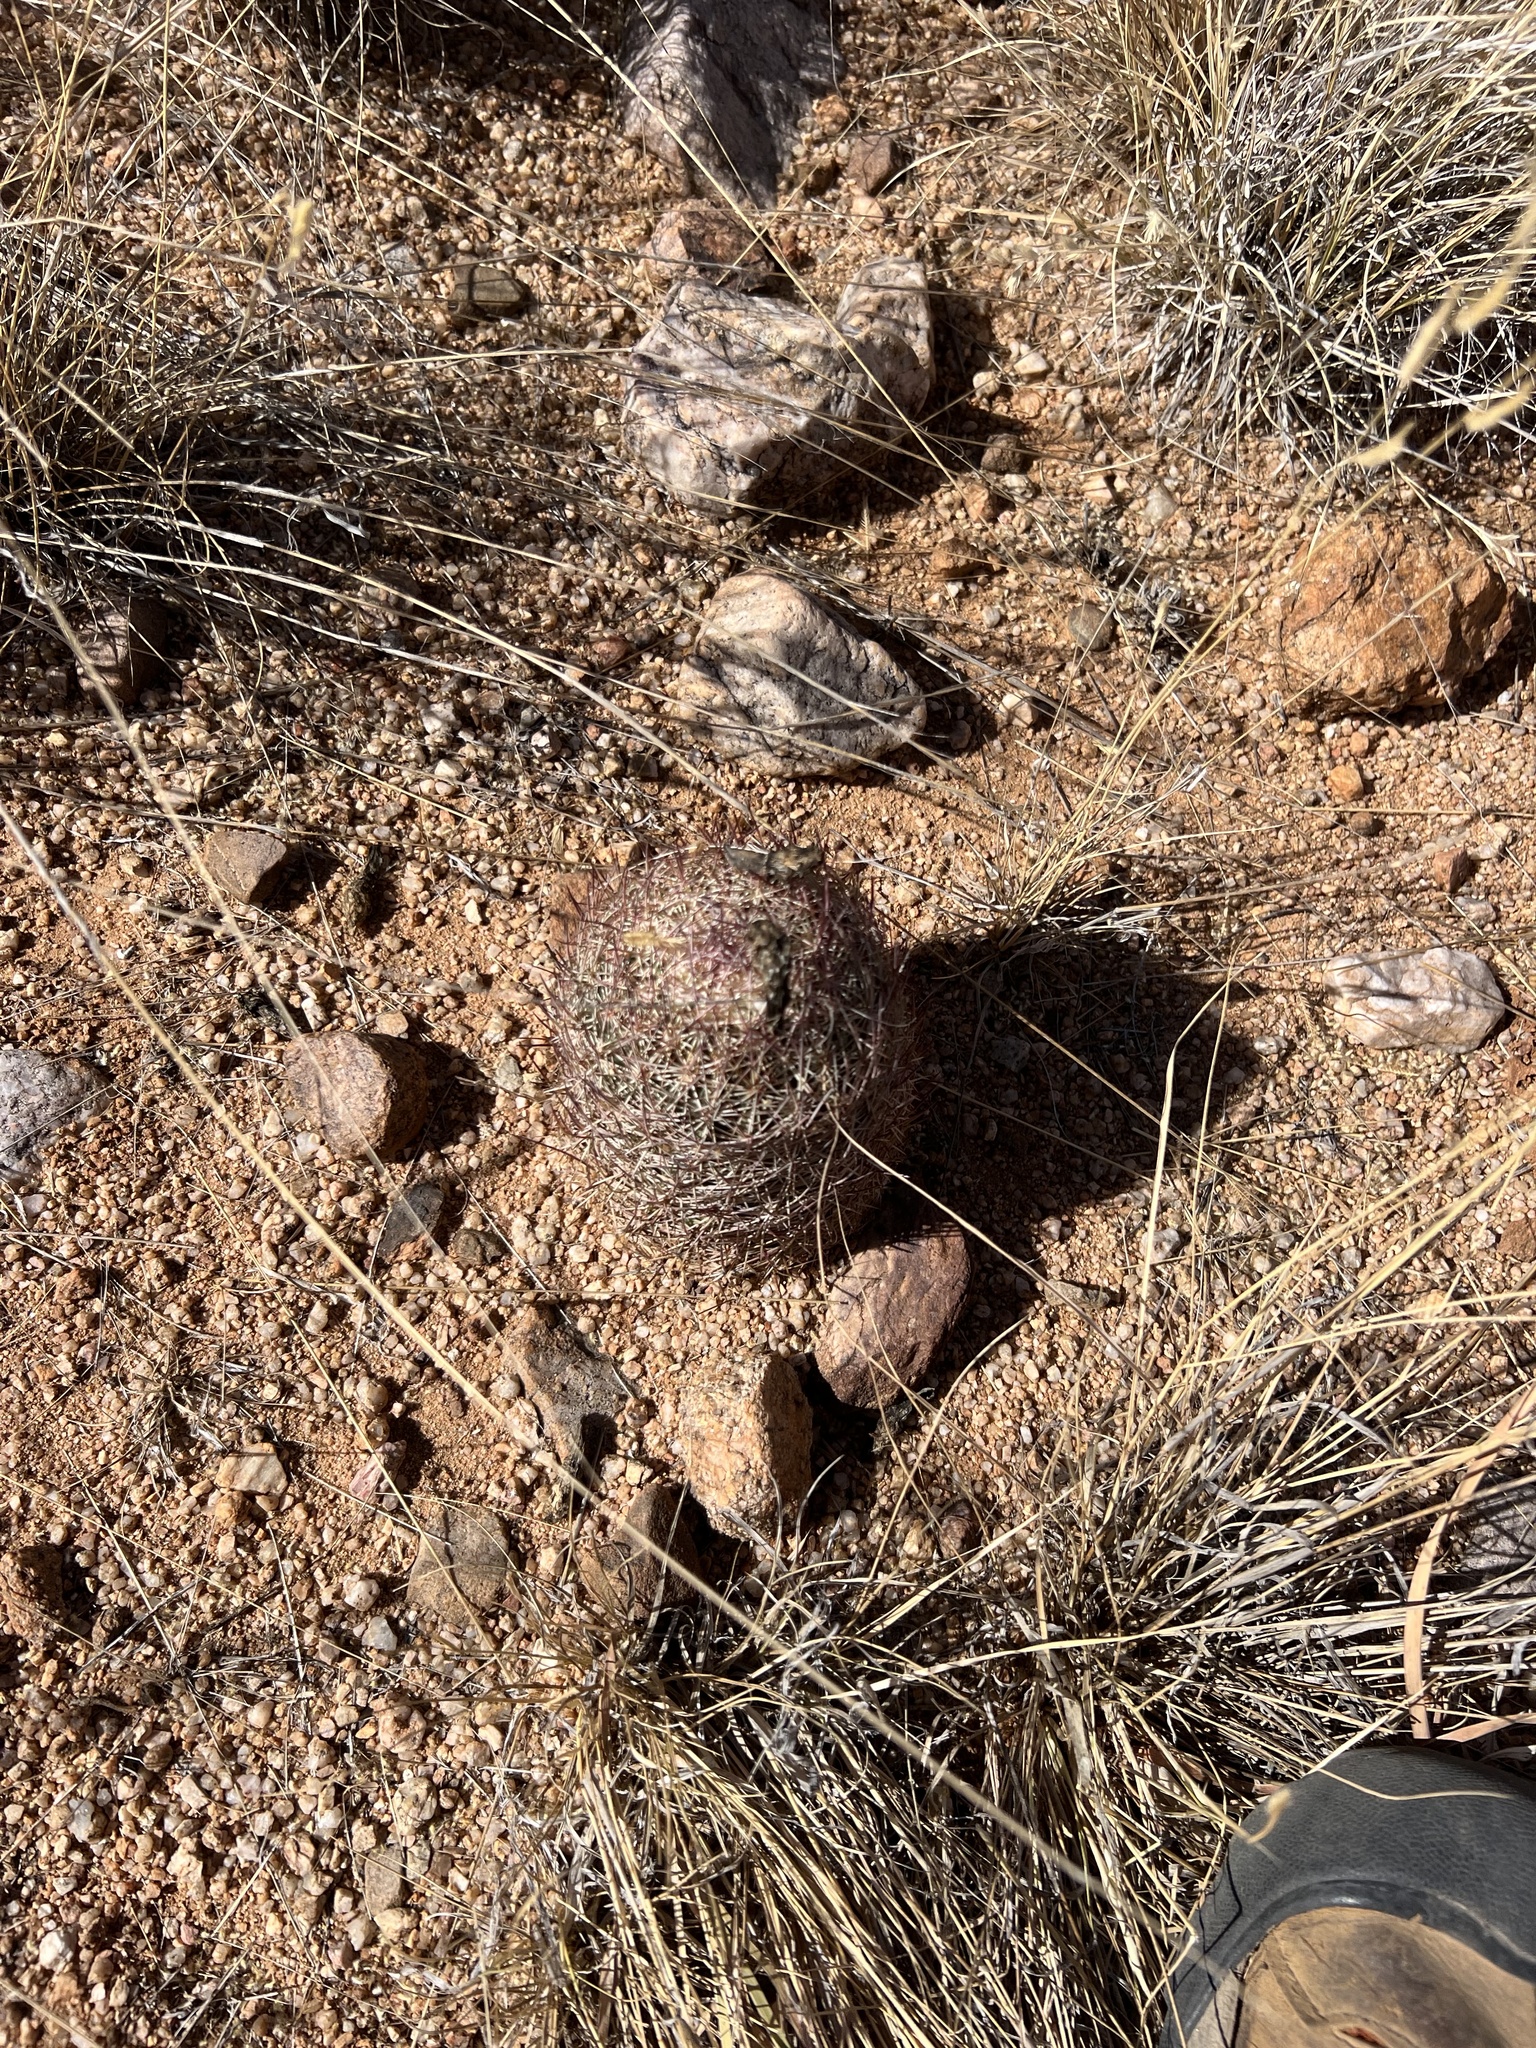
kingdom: Plantae
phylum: Tracheophyta
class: Magnoliopsida
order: Caryophyllales
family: Cactaceae
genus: Sclerocactus
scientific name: Sclerocactus johnsonii
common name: Eight-spine fishhook cactus
